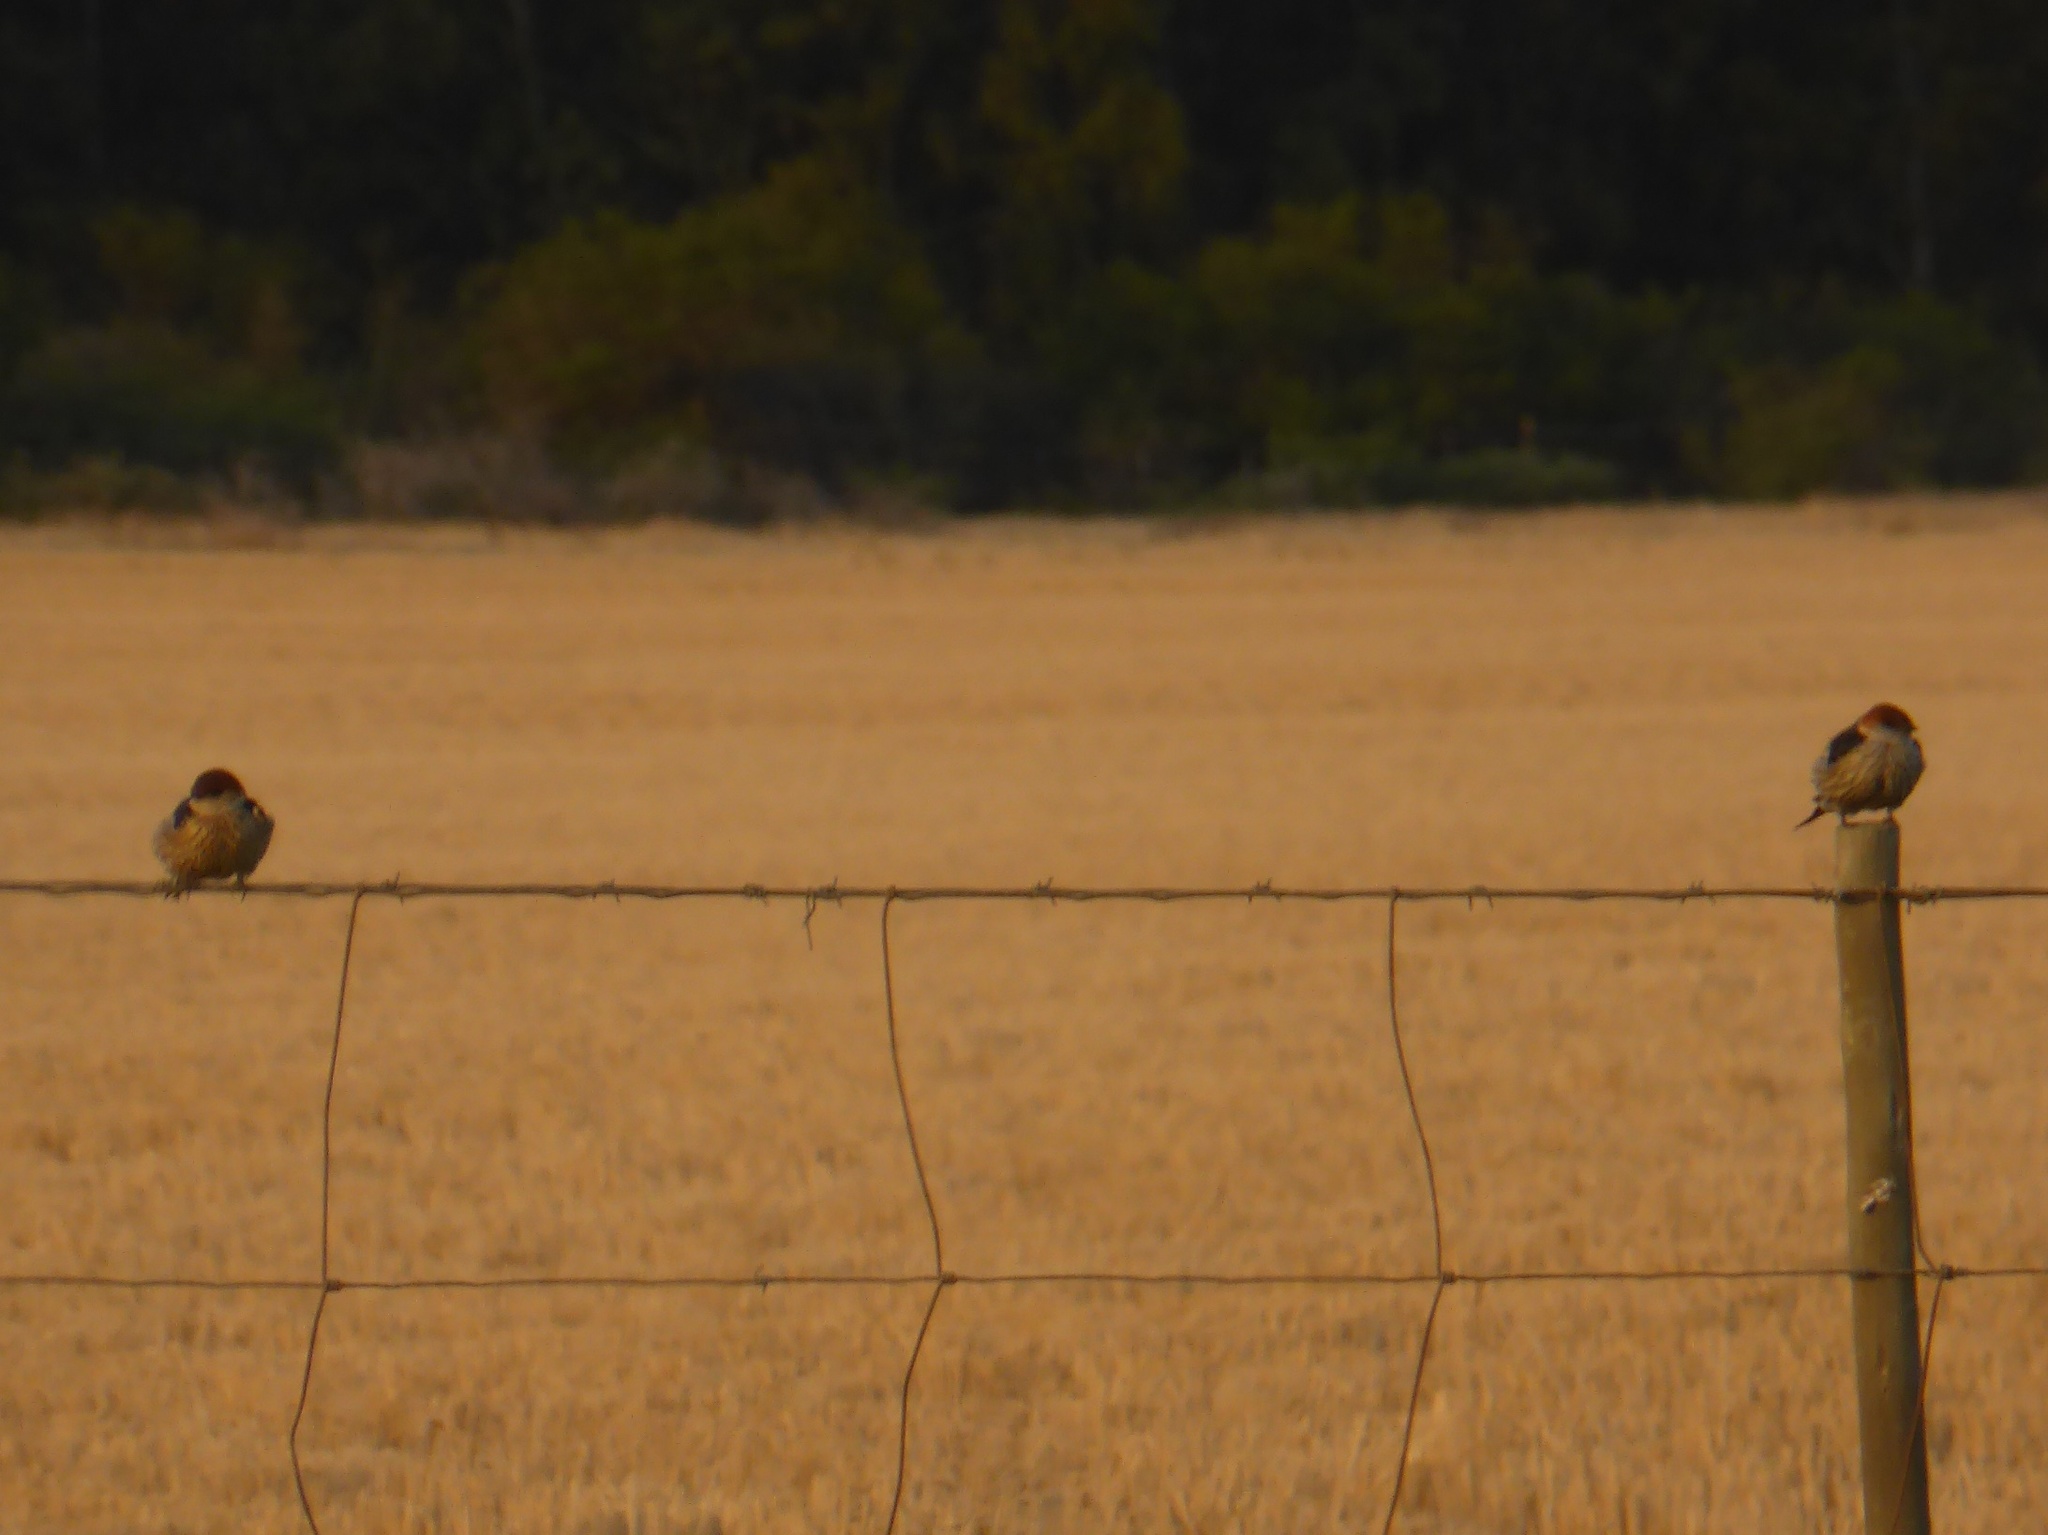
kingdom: Animalia
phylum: Chordata
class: Aves
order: Passeriformes
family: Hirundinidae
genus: Cecropis
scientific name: Cecropis cucullata
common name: Greater striped-swallow
